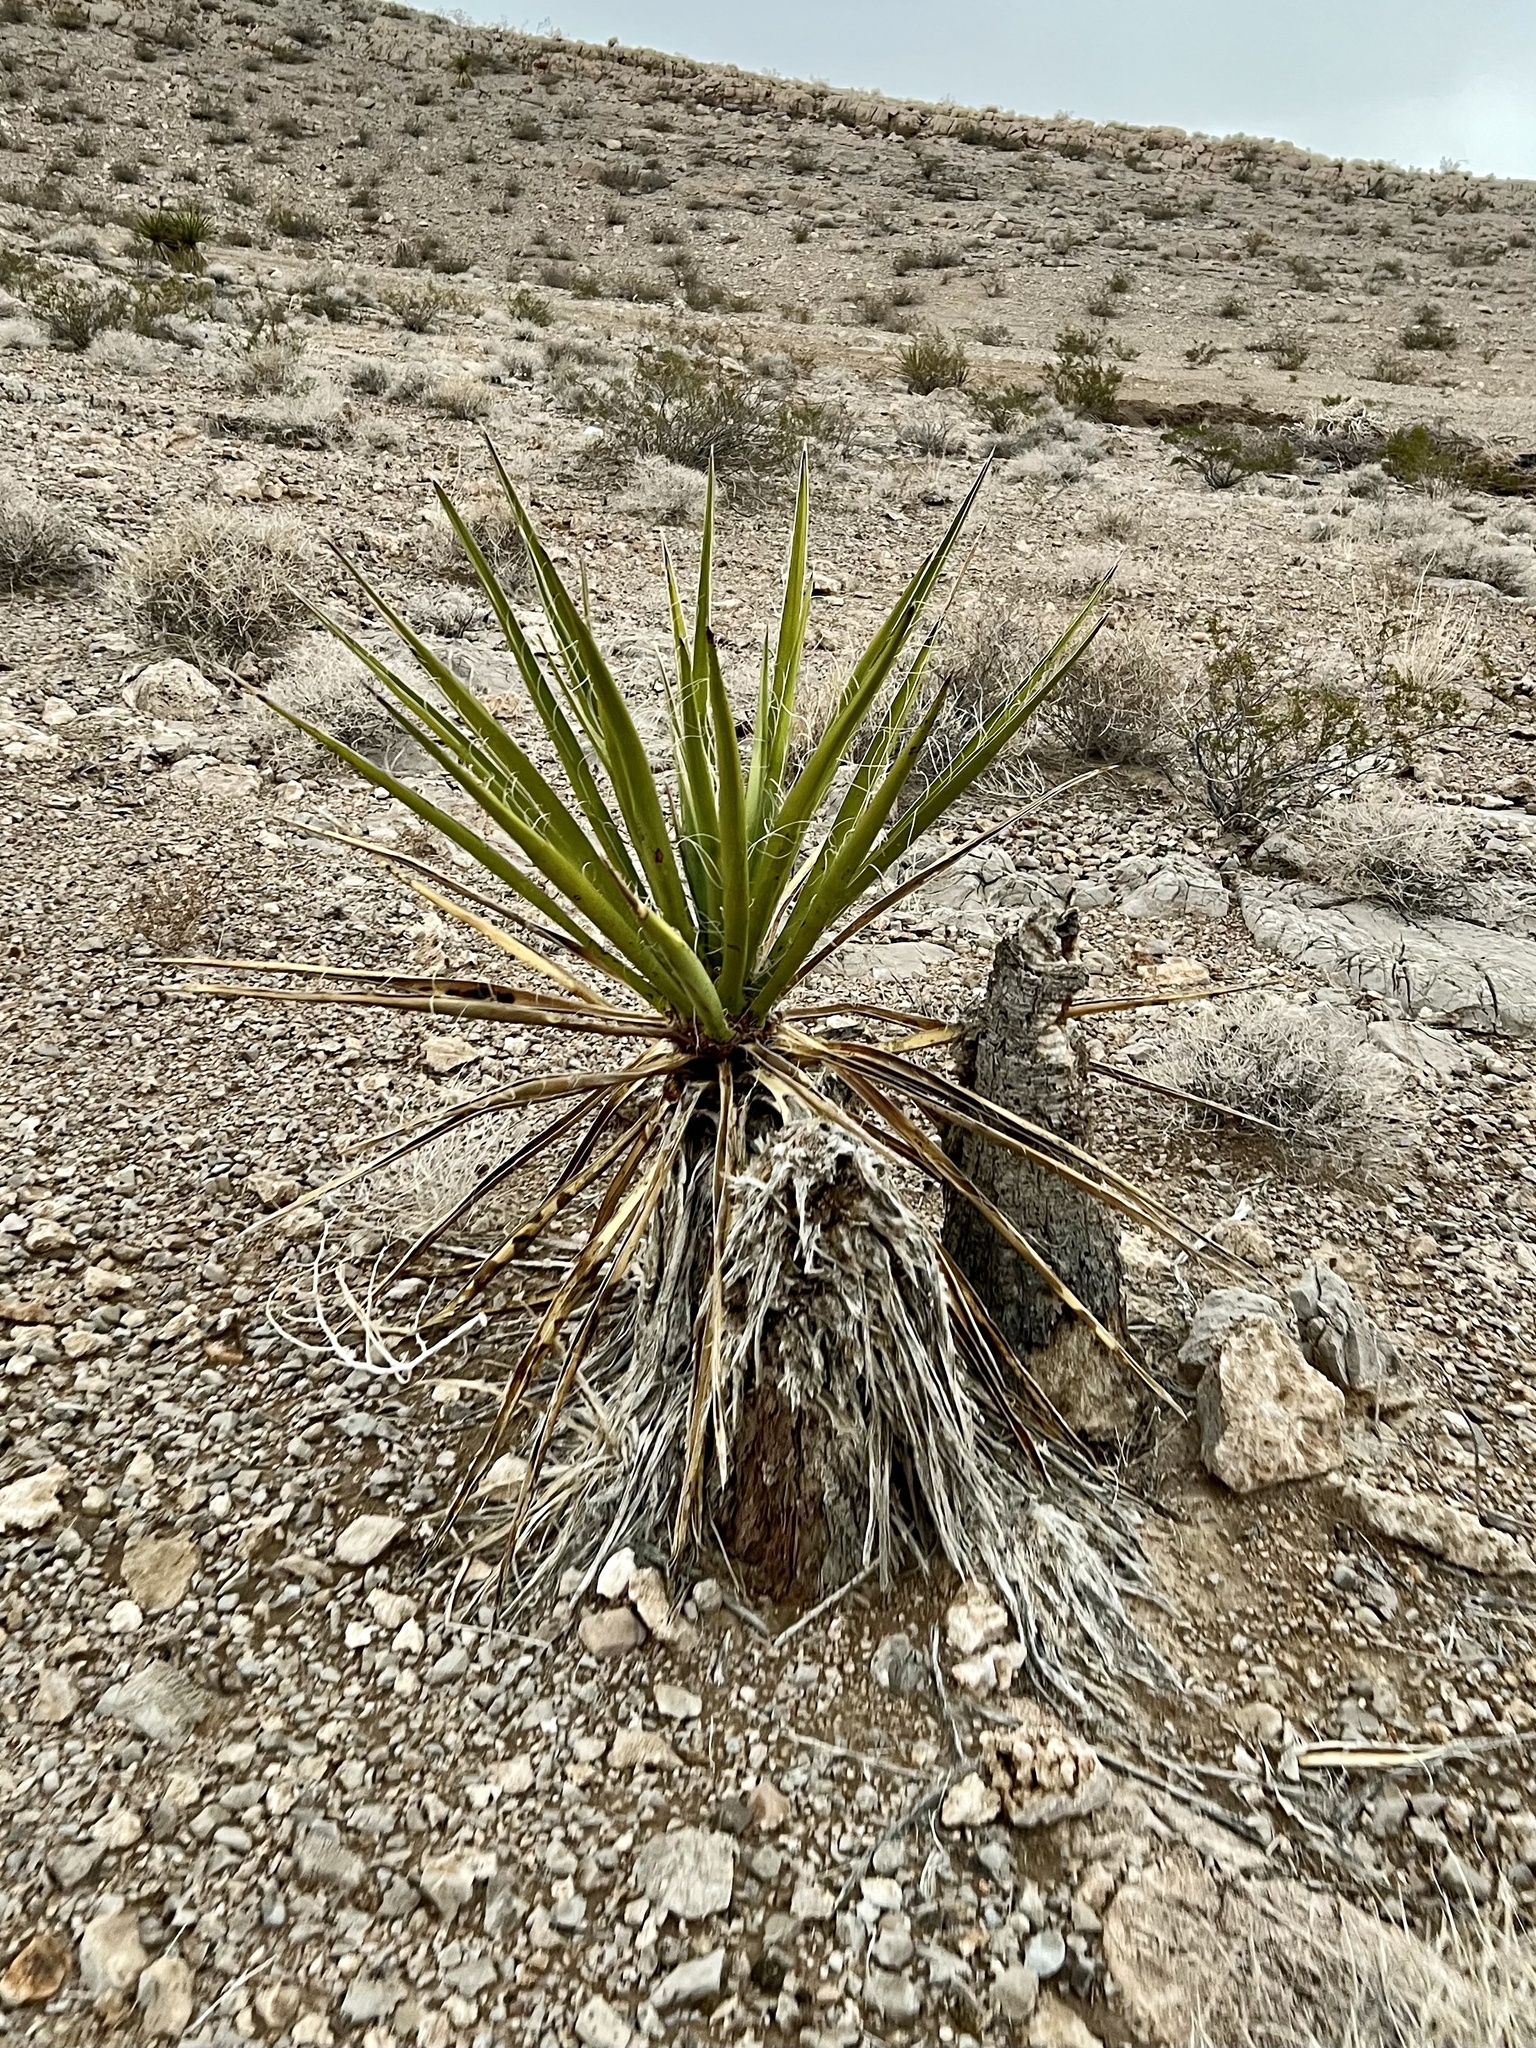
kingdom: Plantae
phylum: Tracheophyta
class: Liliopsida
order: Asparagales
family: Asparagaceae
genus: Yucca
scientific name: Yucca schidigera
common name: Mojave yucca
